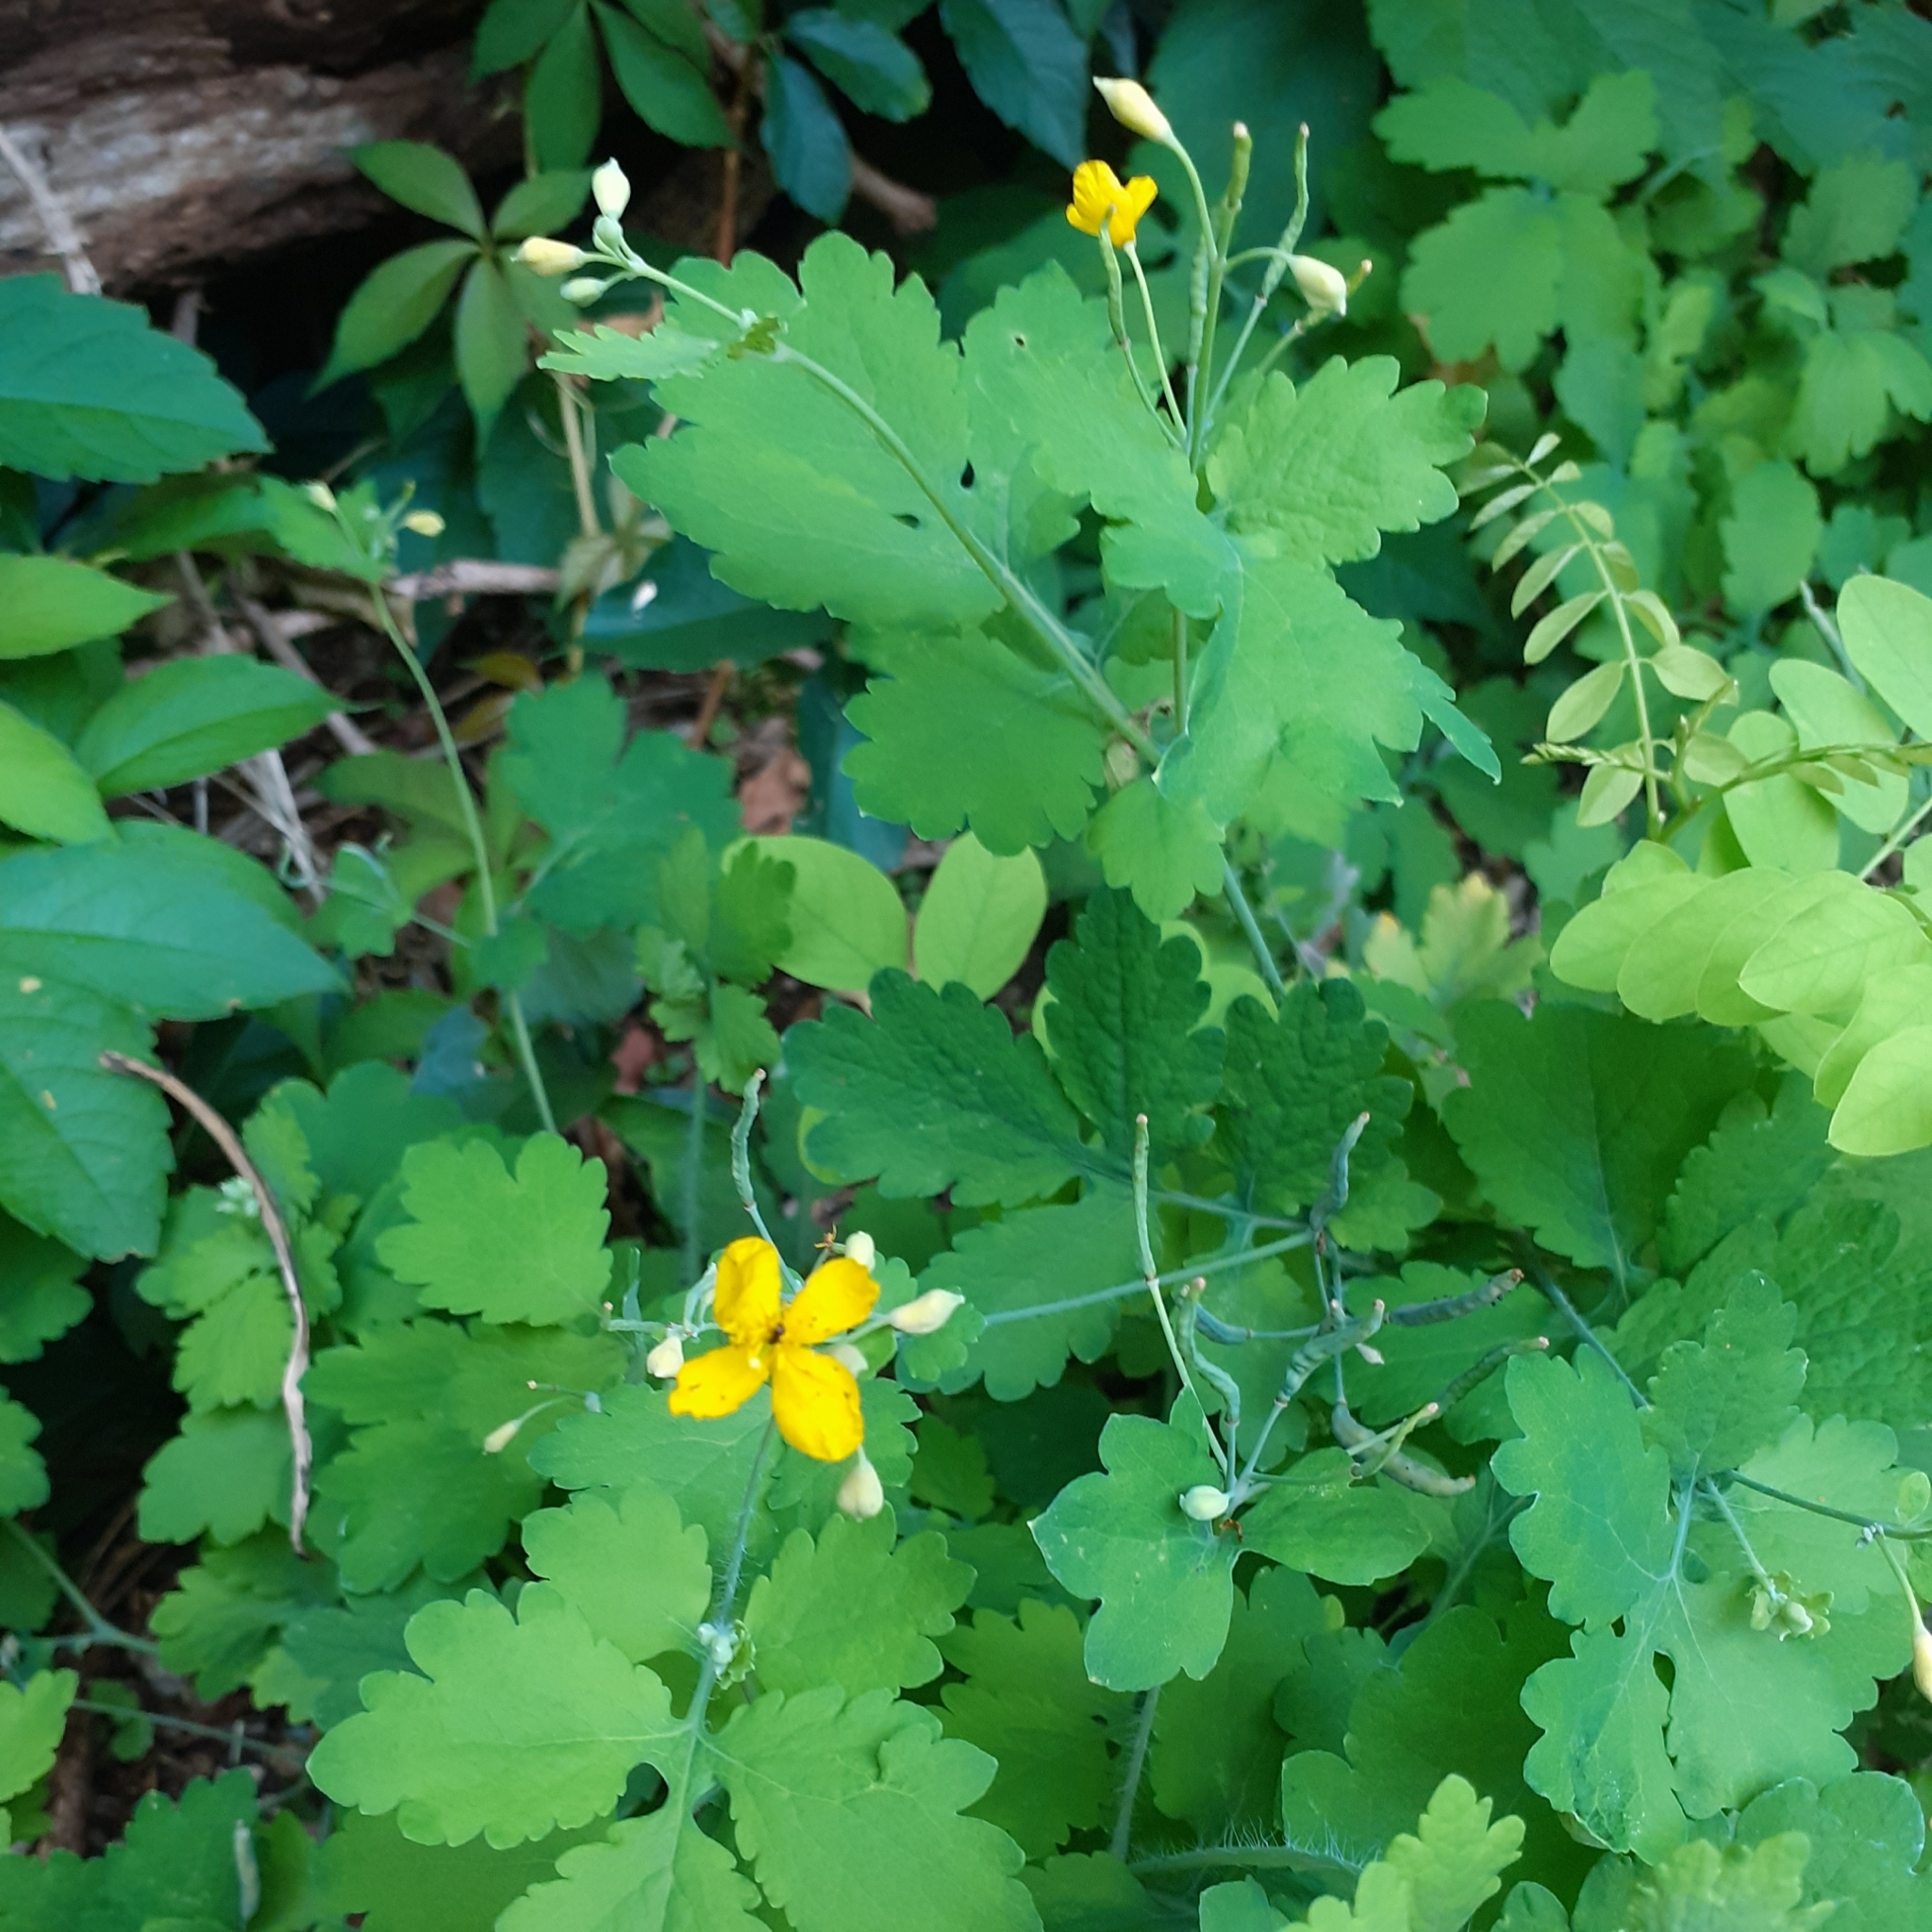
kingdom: Plantae
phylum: Tracheophyta
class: Magnoliopsida
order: Ranunculales
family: Papaveraceae
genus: Chelidonium
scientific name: Chelidonium majus
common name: Greater celandine
